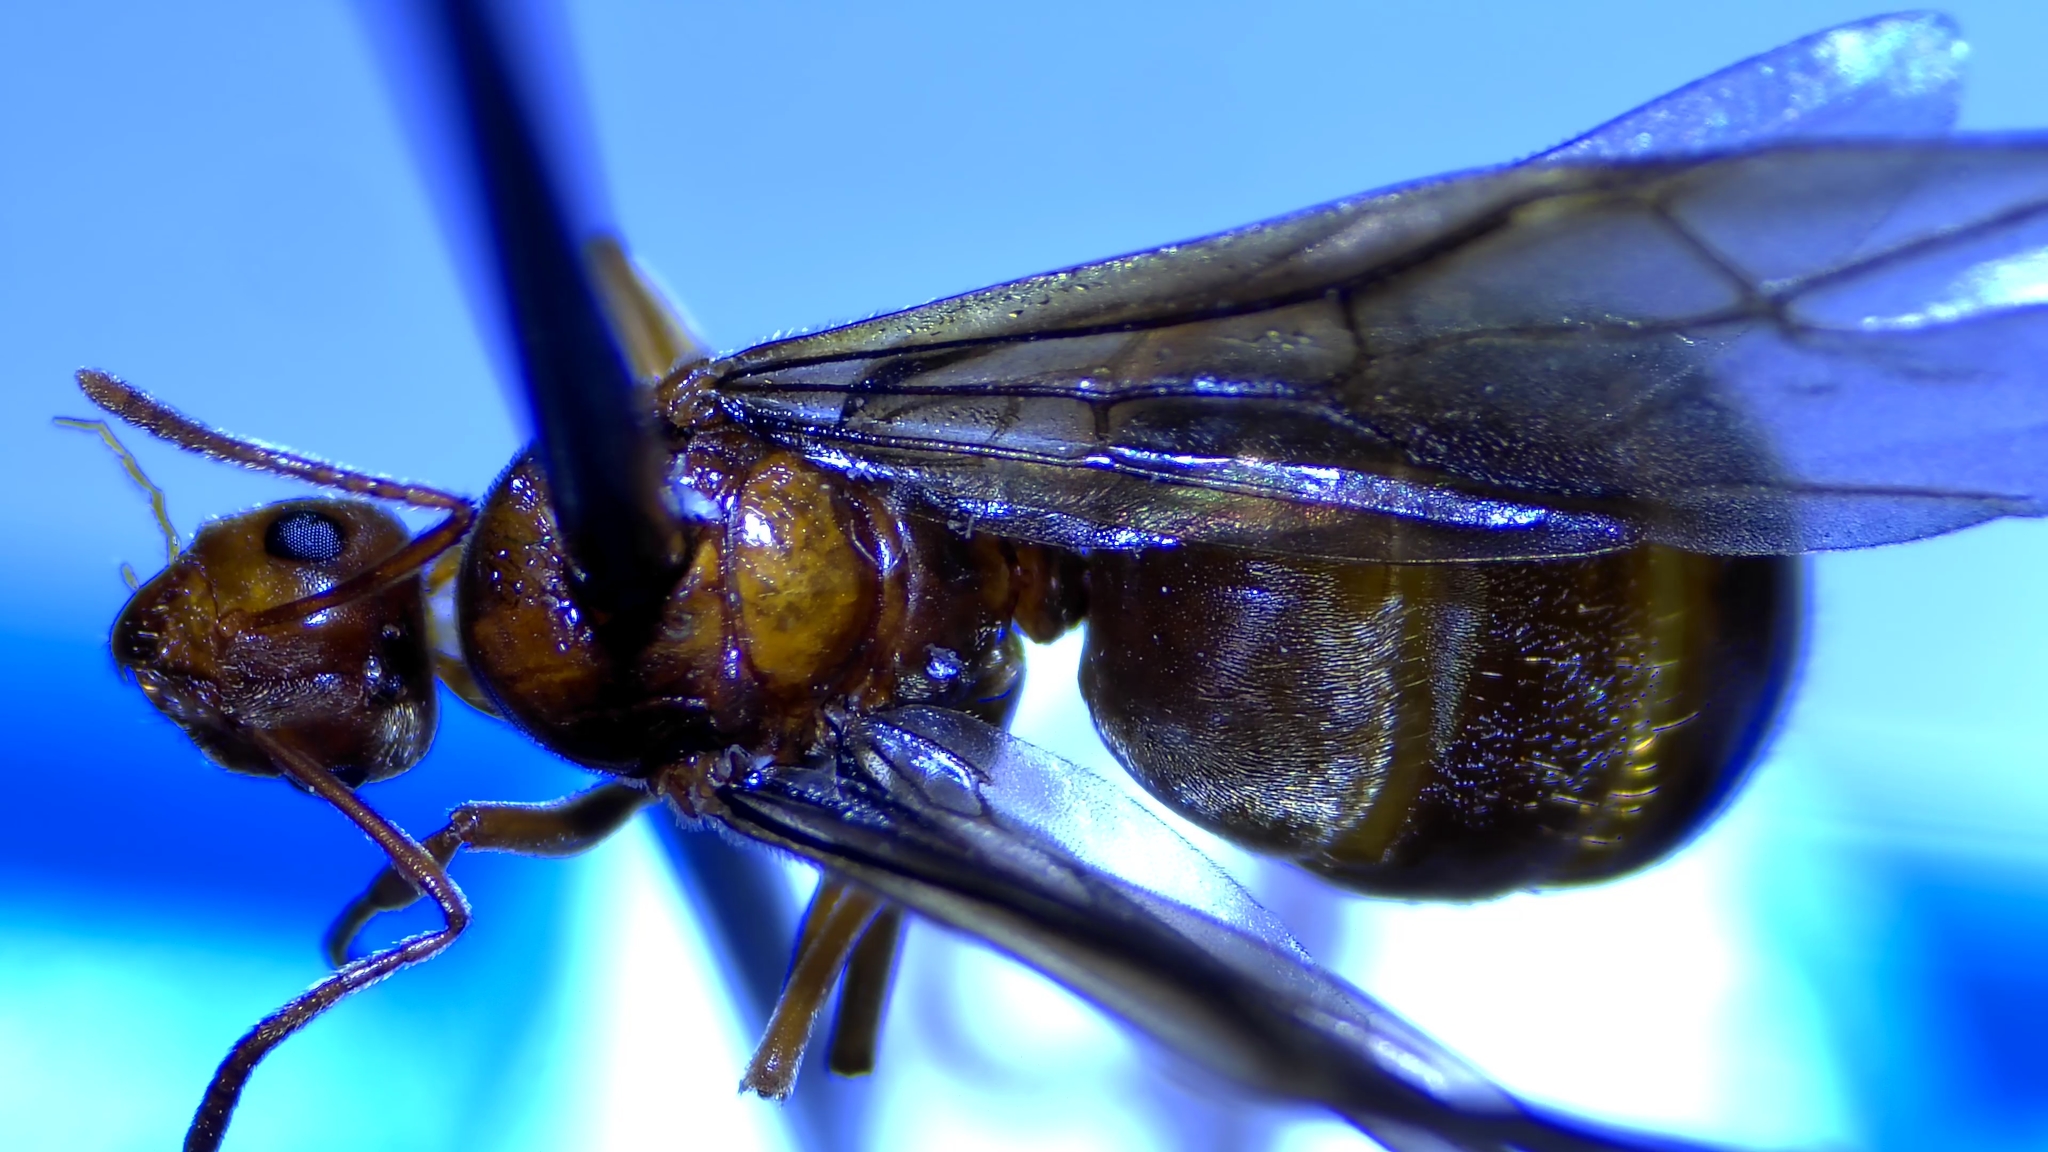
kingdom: Animalia
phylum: Arthropoda
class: Insecta
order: Hymenoptera
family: Formicidae
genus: Prenolepis
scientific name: Prenolepis imparis
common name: Small honey ant
